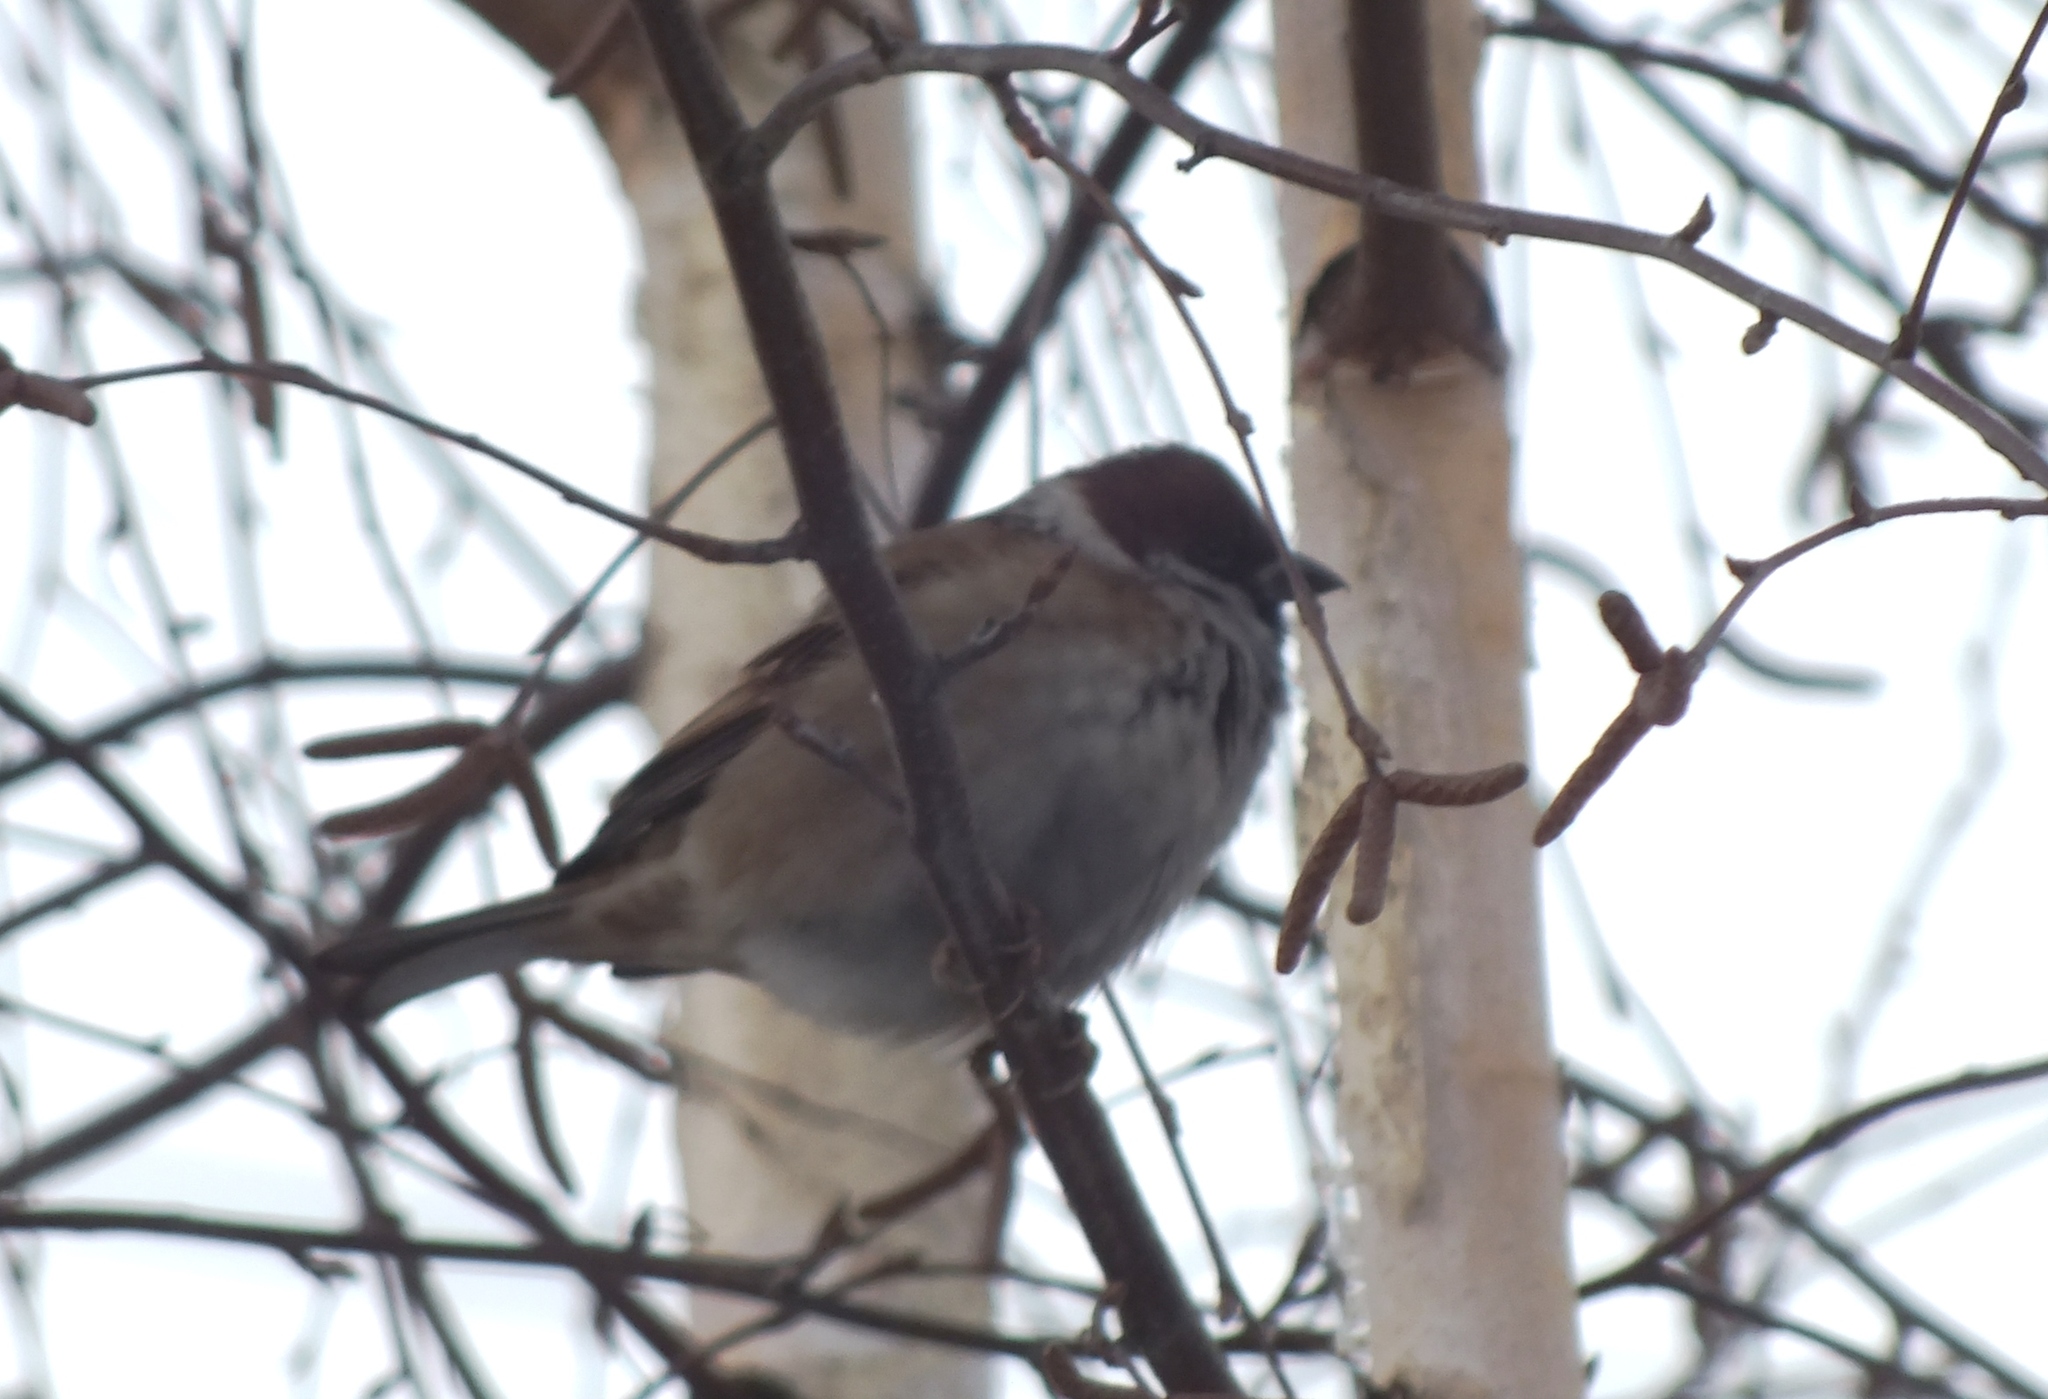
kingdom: Animalia
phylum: Chordata
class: Aves
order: Passeriformes
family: Passeridae
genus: Passer
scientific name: Passer montanus
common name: Eurasian tree sparrow
